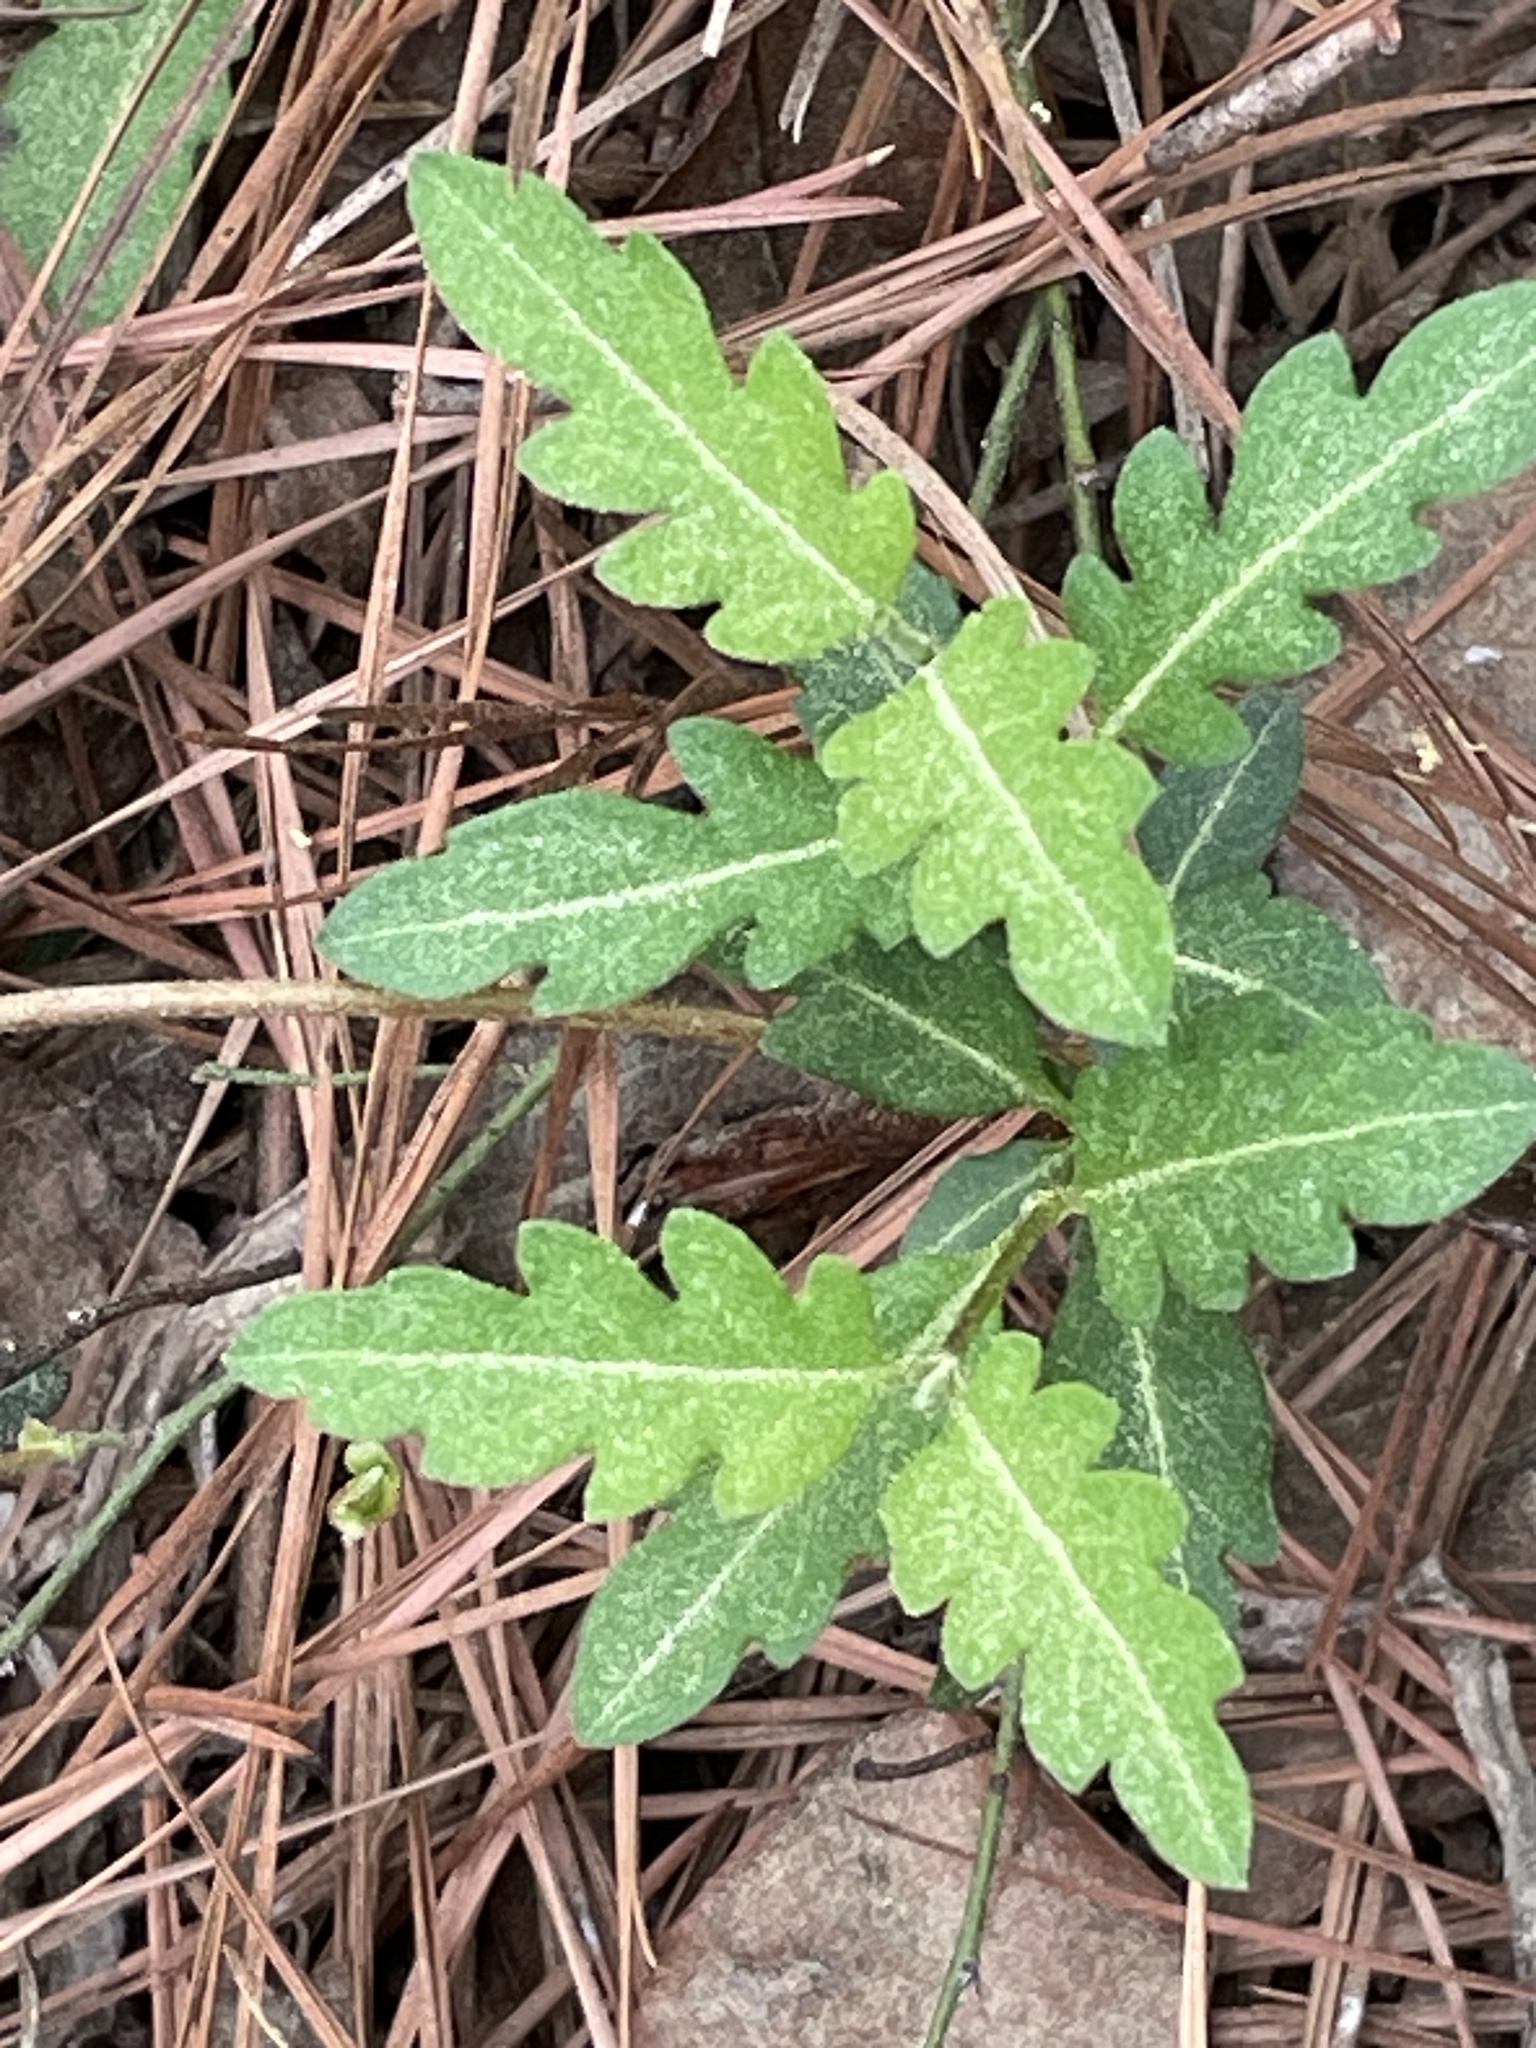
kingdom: Plantae
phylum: Tracheophyta
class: Magnoliopsida
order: Dipsacales
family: Caprifoliaceae
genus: Lonicera
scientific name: Lonicera japonica
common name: Japanese honeysuckle
